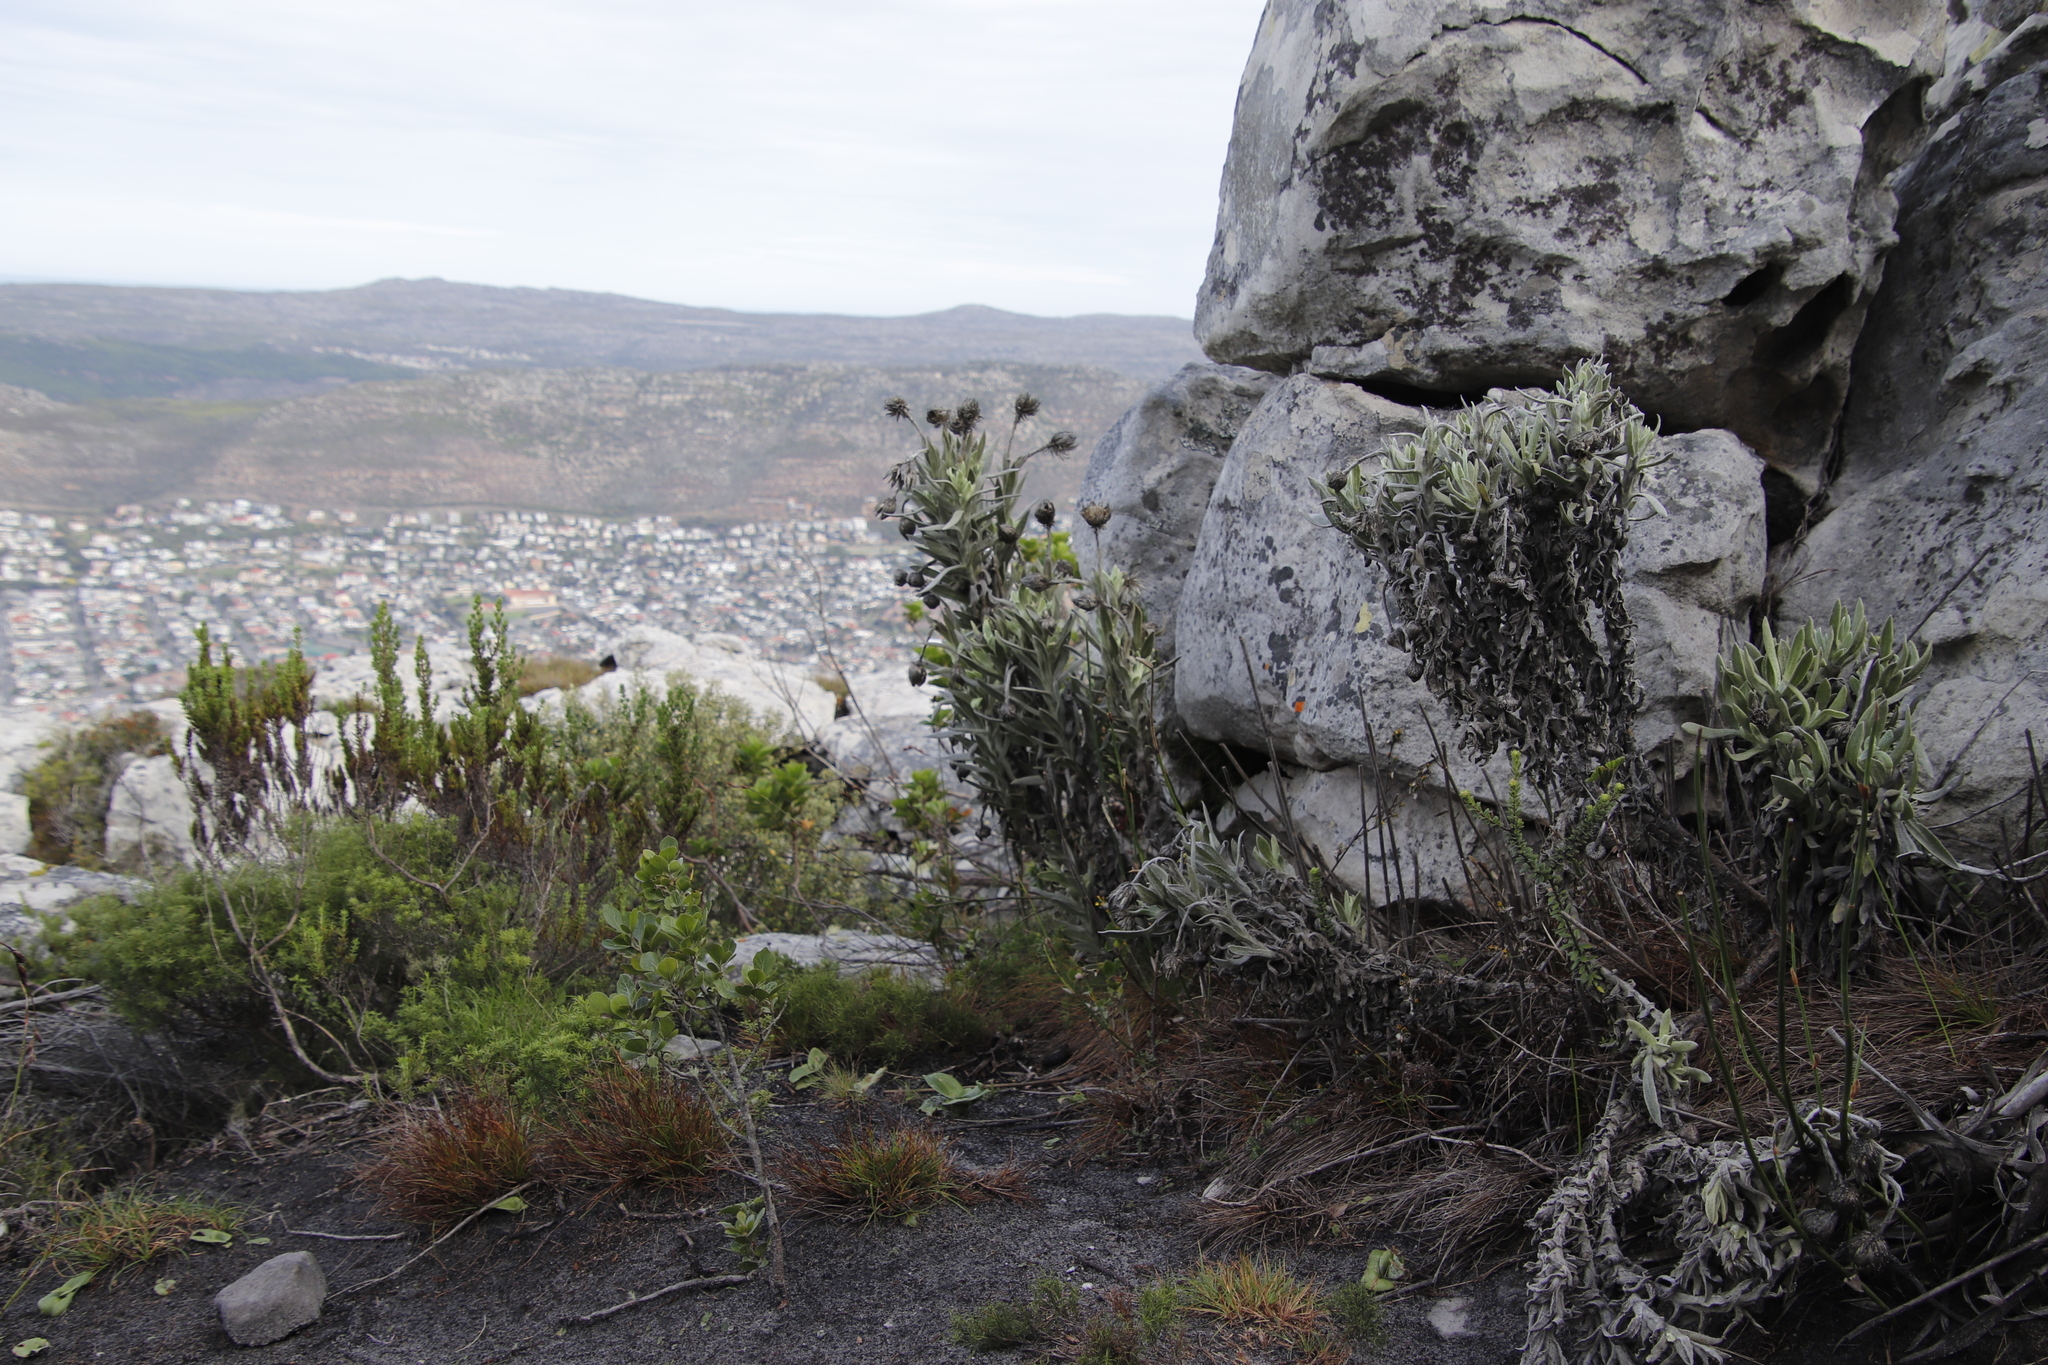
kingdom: Plantae
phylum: Tracheophyta
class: Magnoliopsida
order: Asterales
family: Asteraceae
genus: Syncarpha
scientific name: Syncarpha vestita
